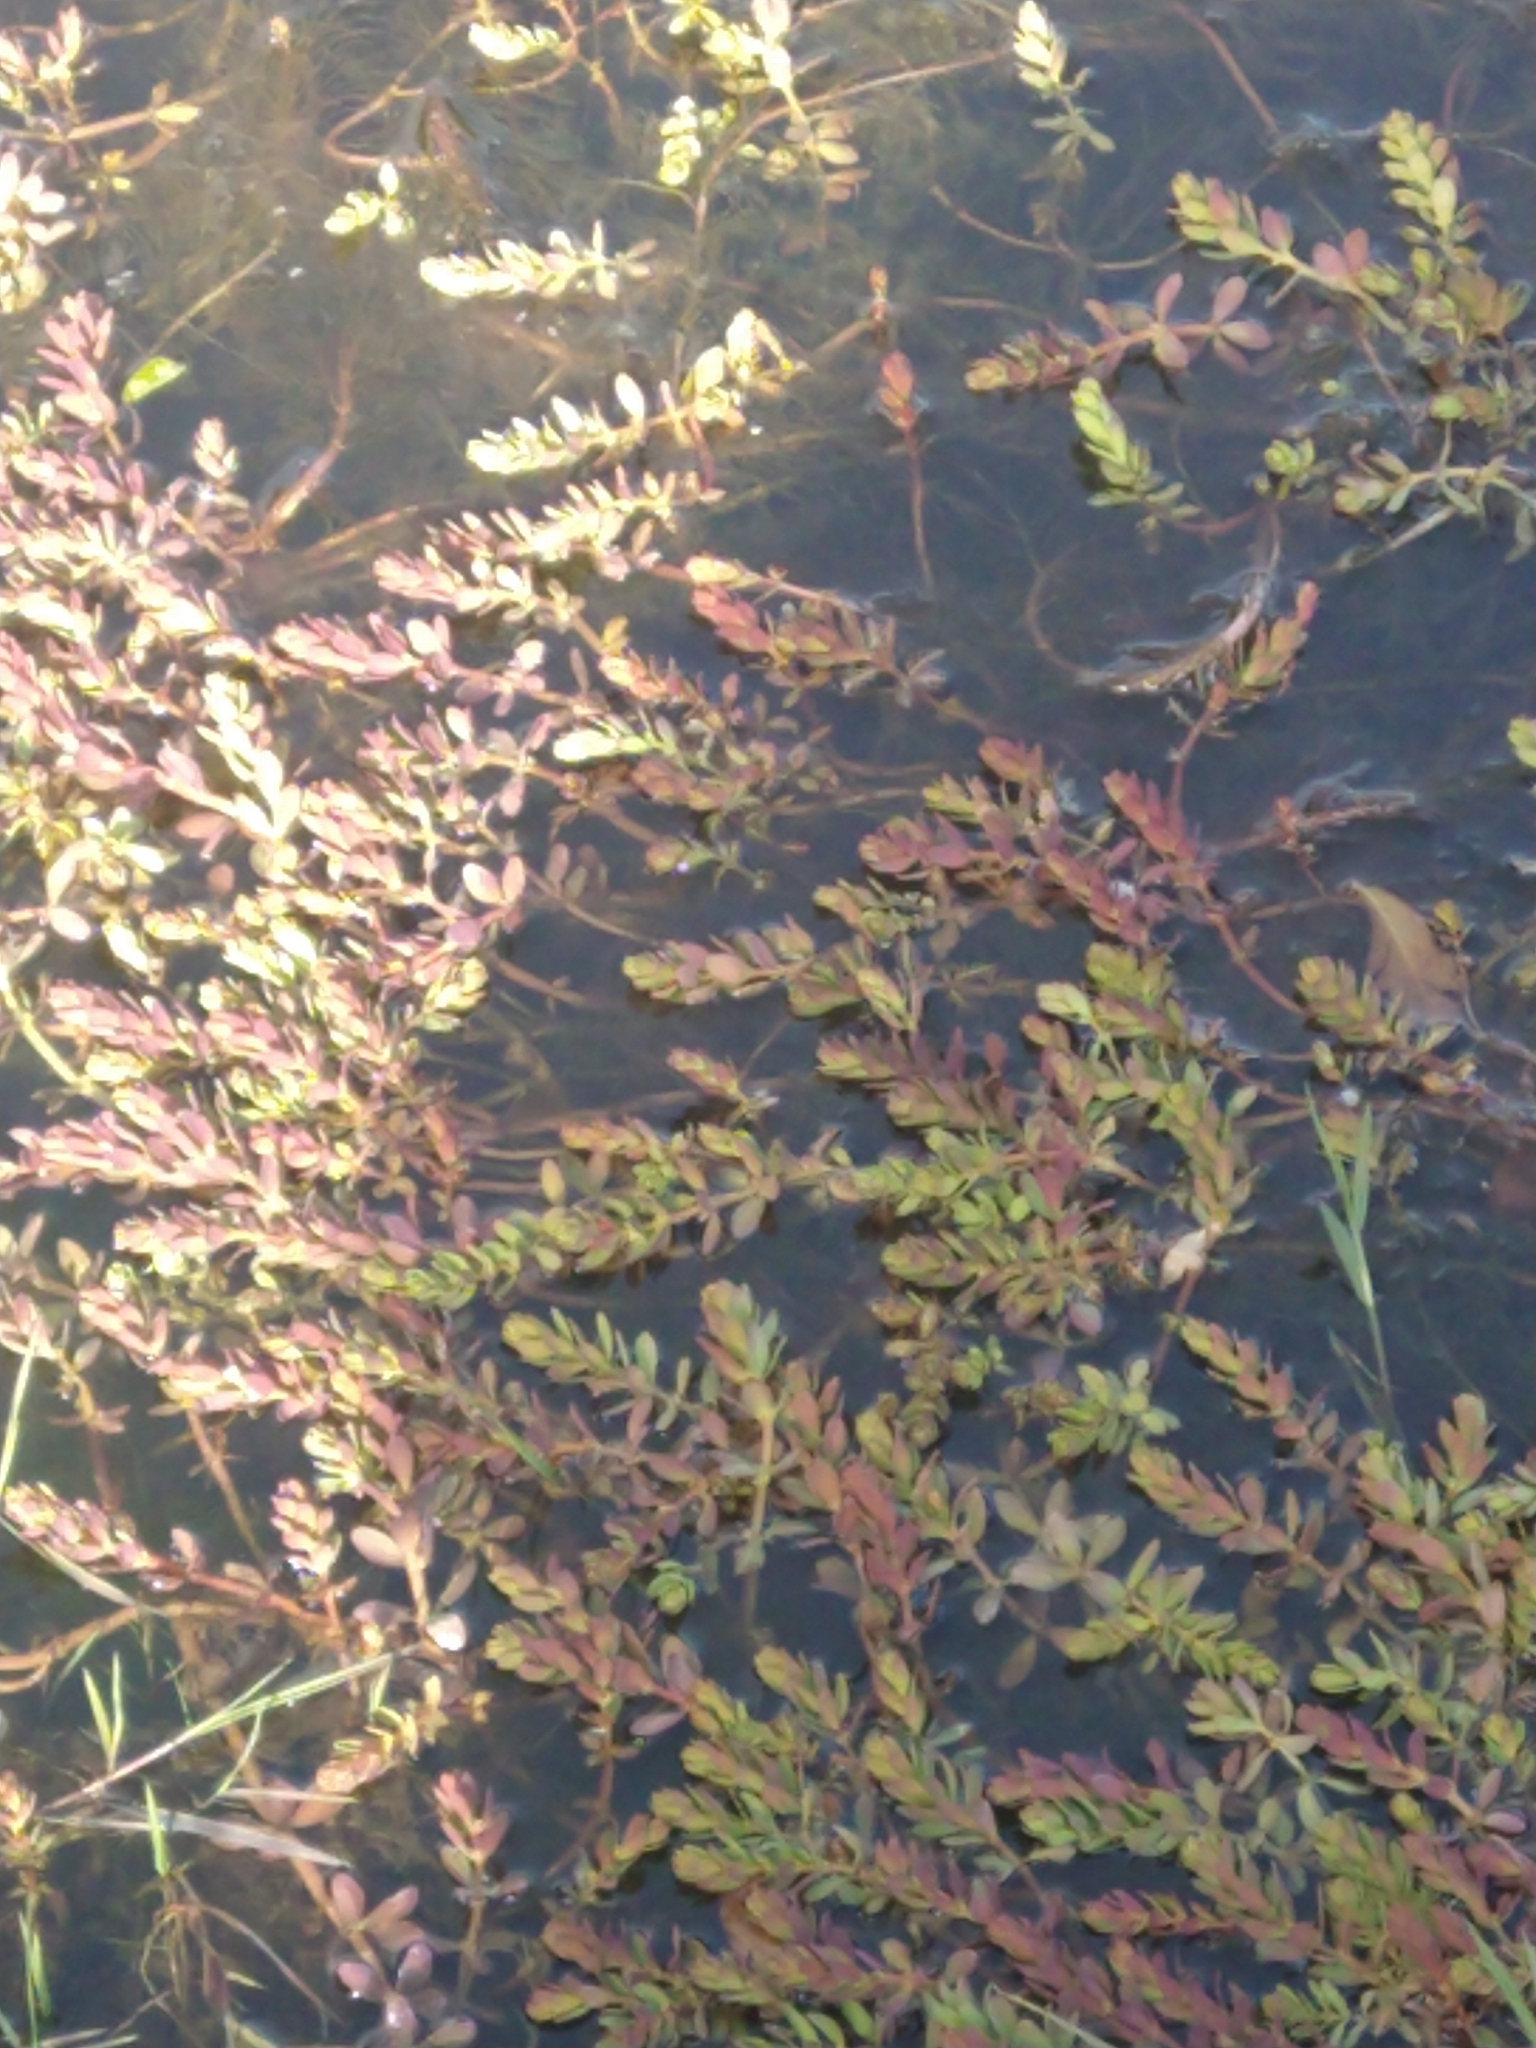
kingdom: Plantae
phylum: Tracheophyta
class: Magnoliopsida
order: Saxifragales
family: Haloragaceae
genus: Myriophyllum
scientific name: Myriophyllum quitense
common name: Andean water milfoil
